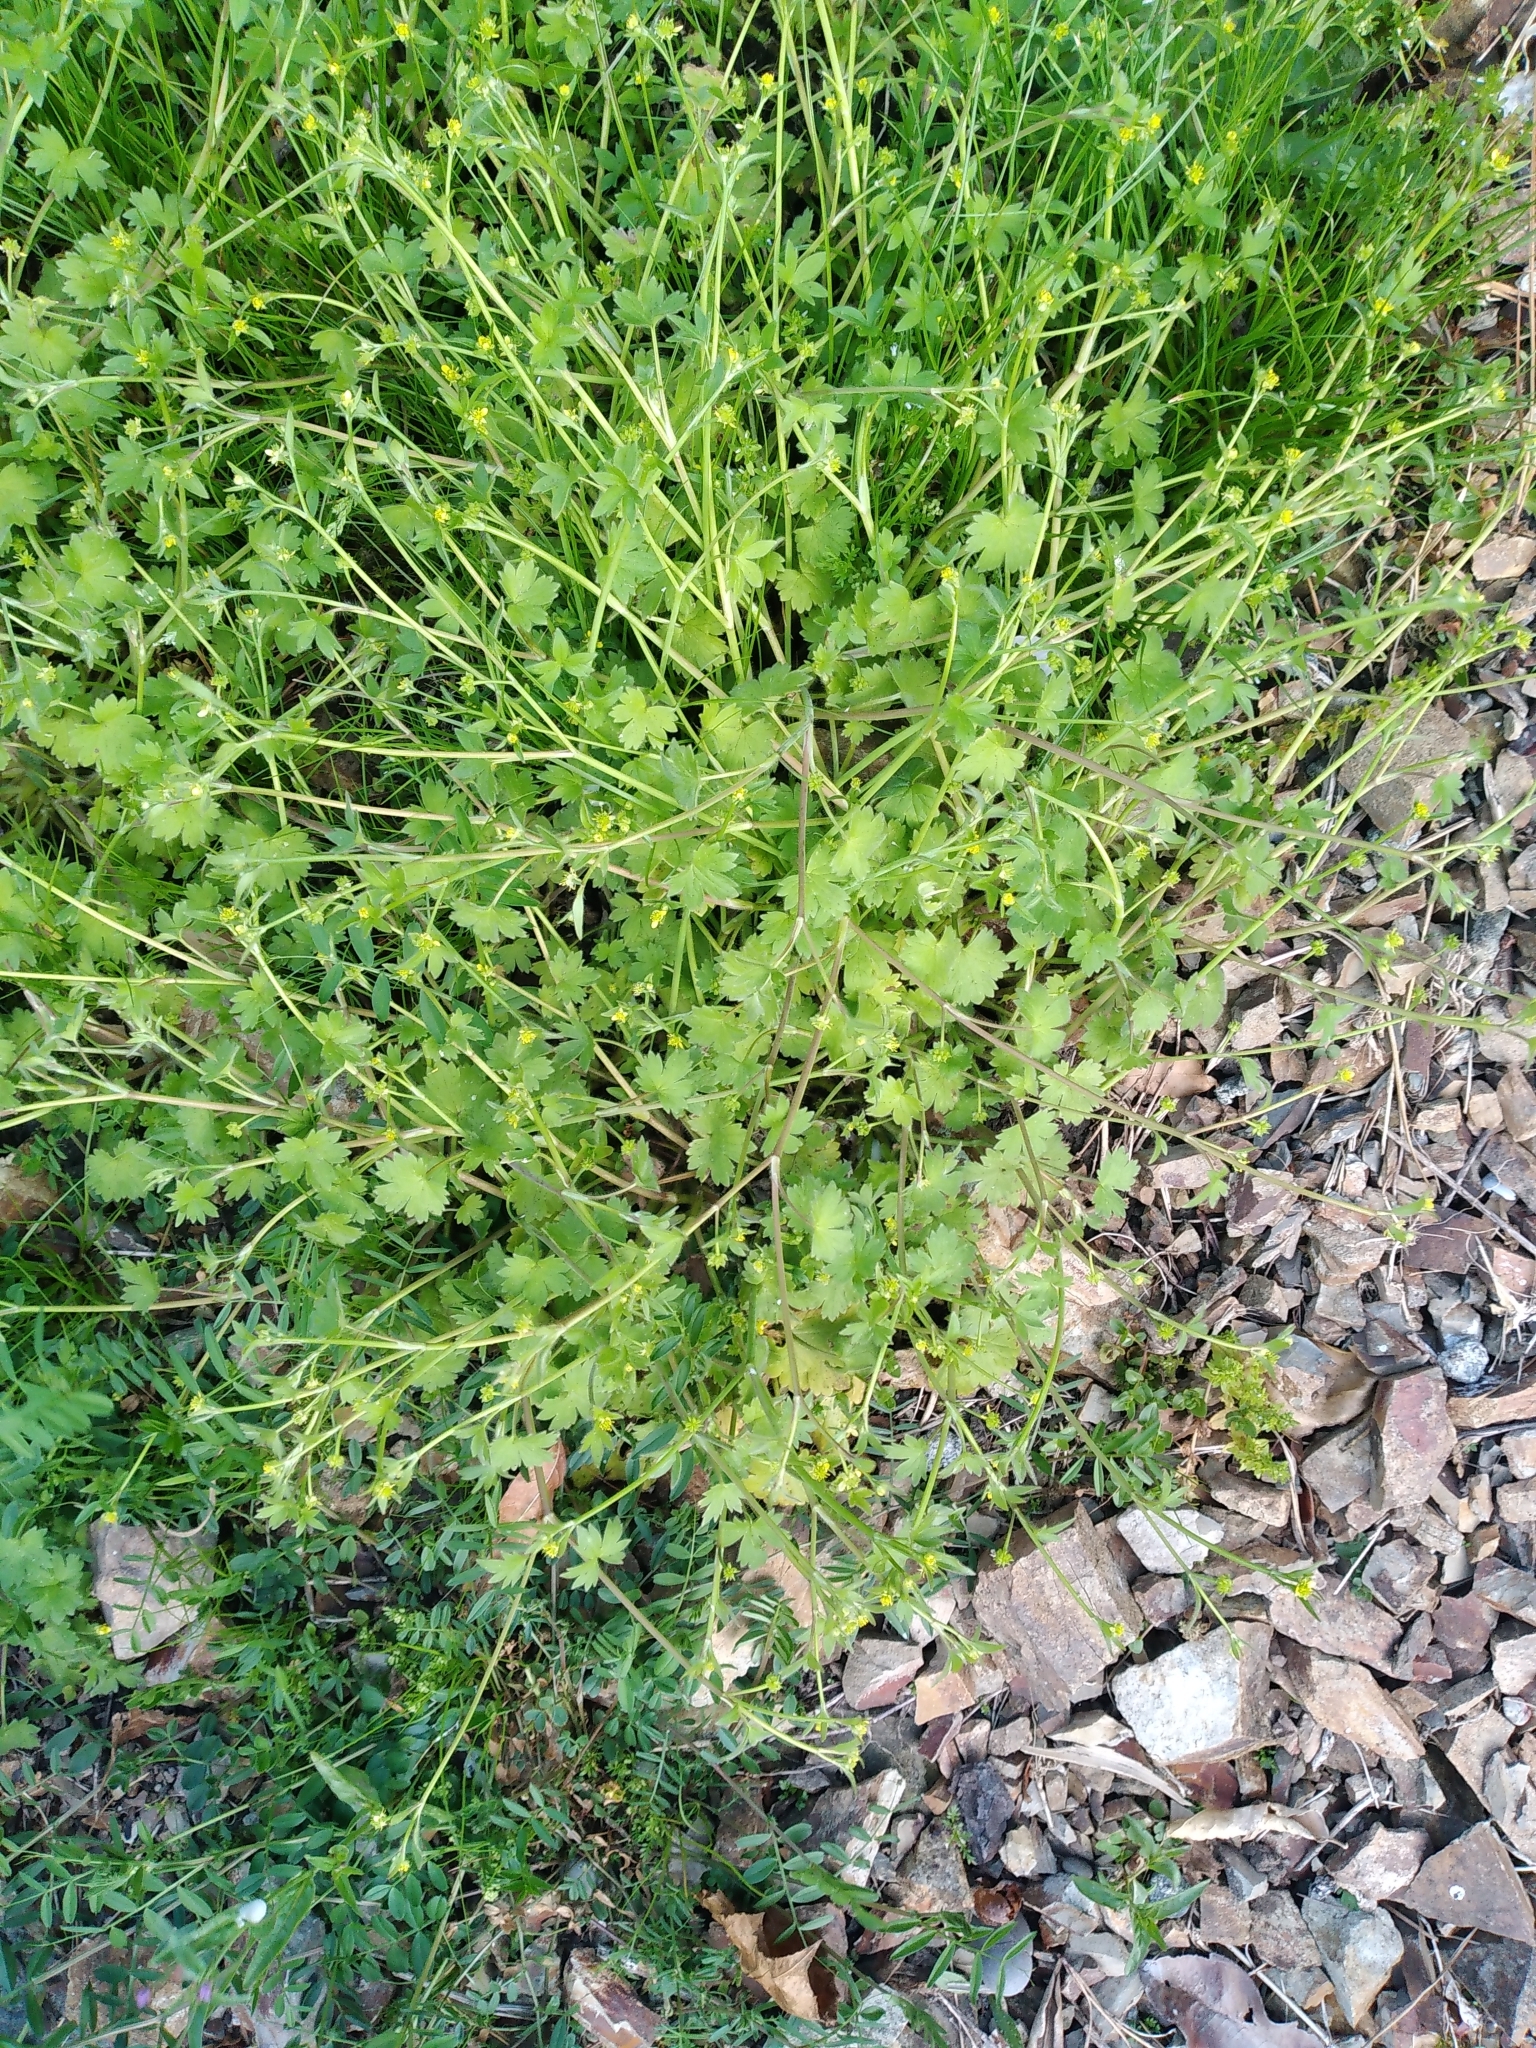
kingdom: Plantae
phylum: Tracheophyta
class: Magnoliopsida
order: Ranunculales
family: Ranunculaceae
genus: Ranunculus
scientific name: Ranunculus parviflorus
